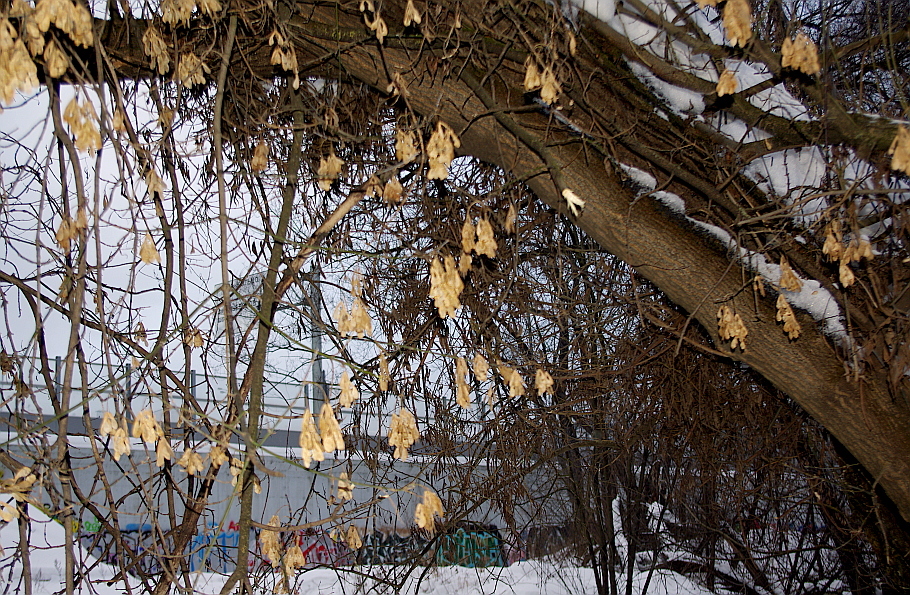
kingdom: Plantae
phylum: Tracheophyta
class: Magnoliopsida
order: Sapindales
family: Sapindaceae
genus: Acer
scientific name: Acer negundo
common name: Ashleaf maple
